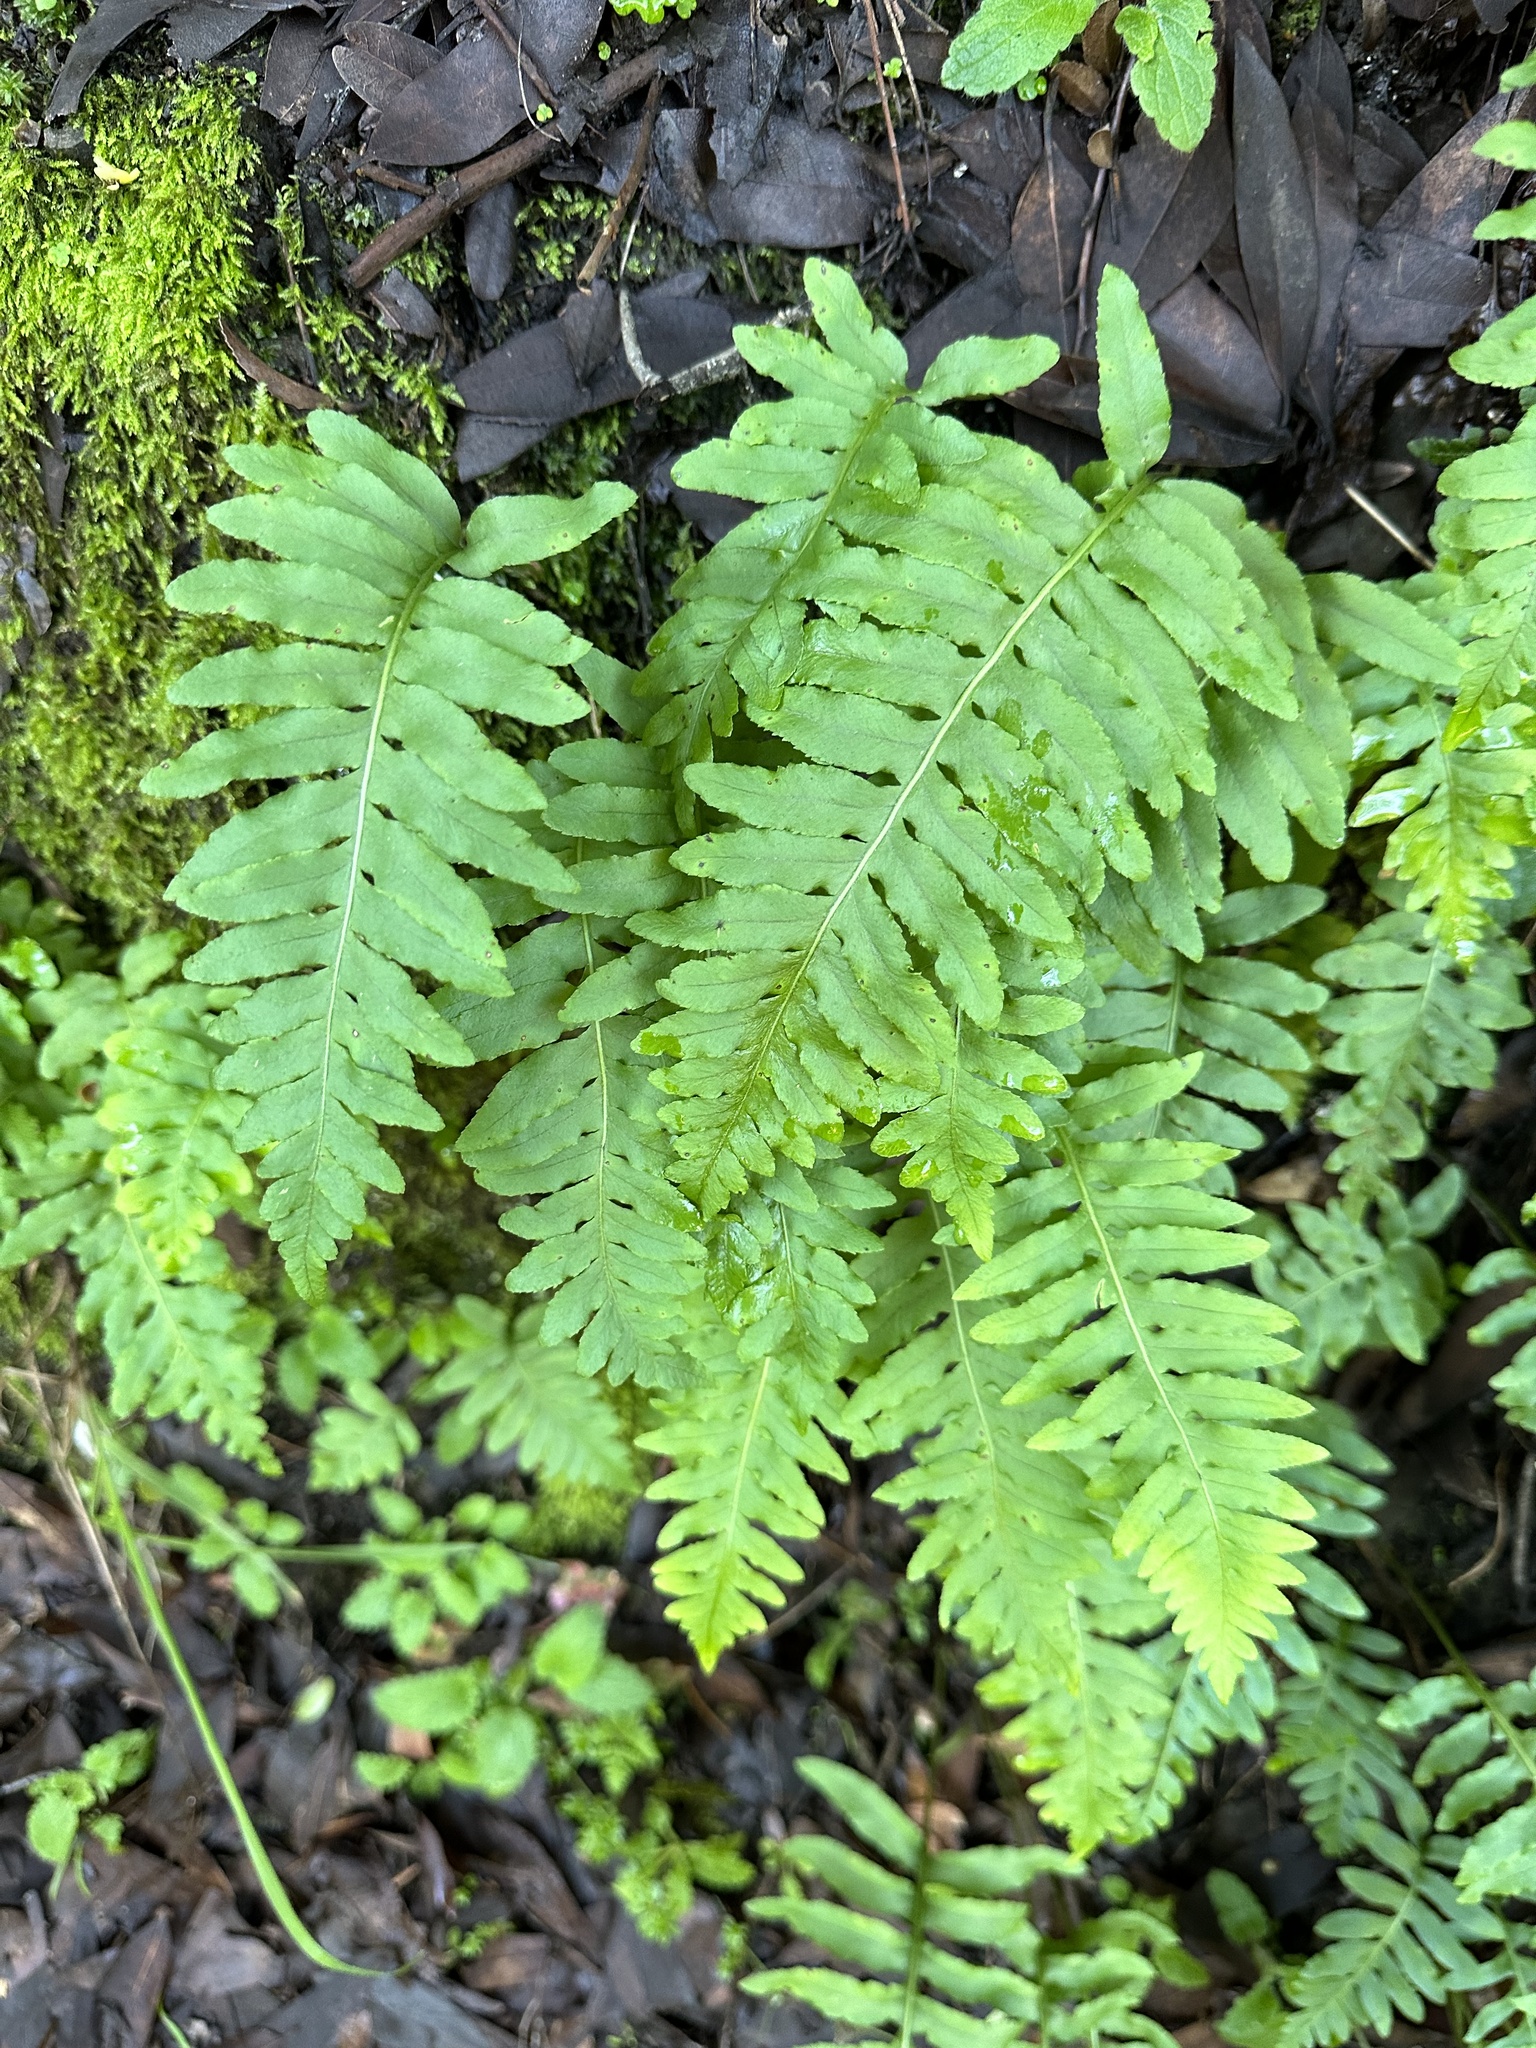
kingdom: Plantae
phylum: Tracheophyta
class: Polypodiopsida
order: Polypodiales
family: Polypodiaceae
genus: Polypodium
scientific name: Polypodium californicum
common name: California polypody
